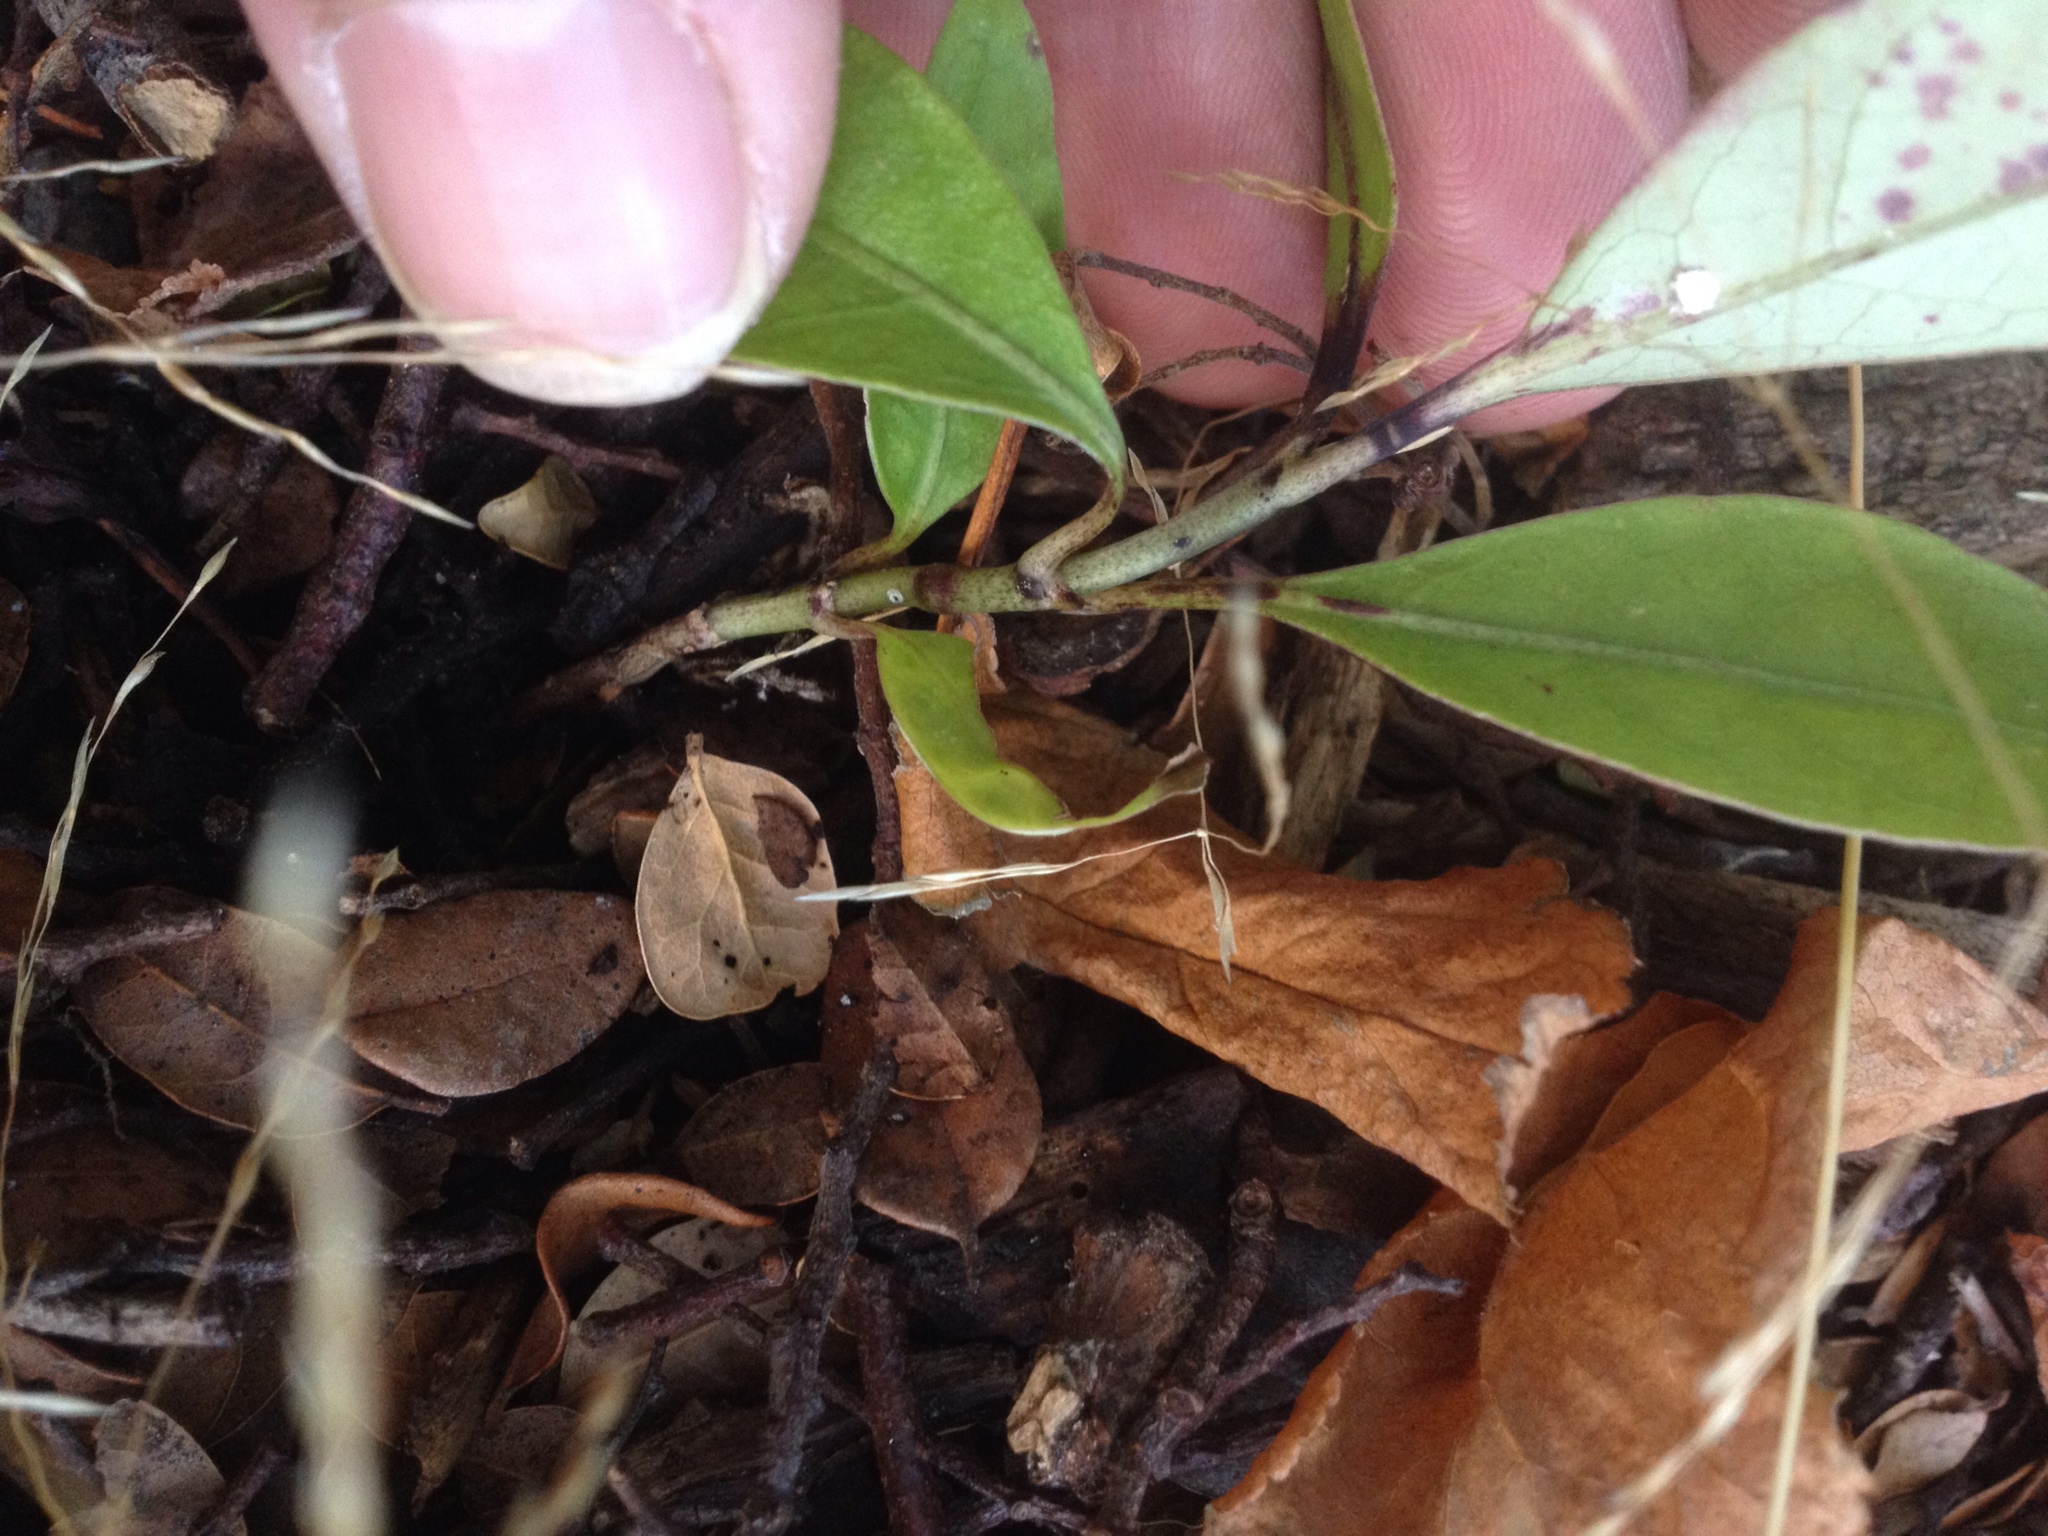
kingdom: Plantae
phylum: Tracheophyta
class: Magnoliopsida
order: Gentianales
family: Rubiaceae
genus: Coprosma
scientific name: Coprosma autumnalis
